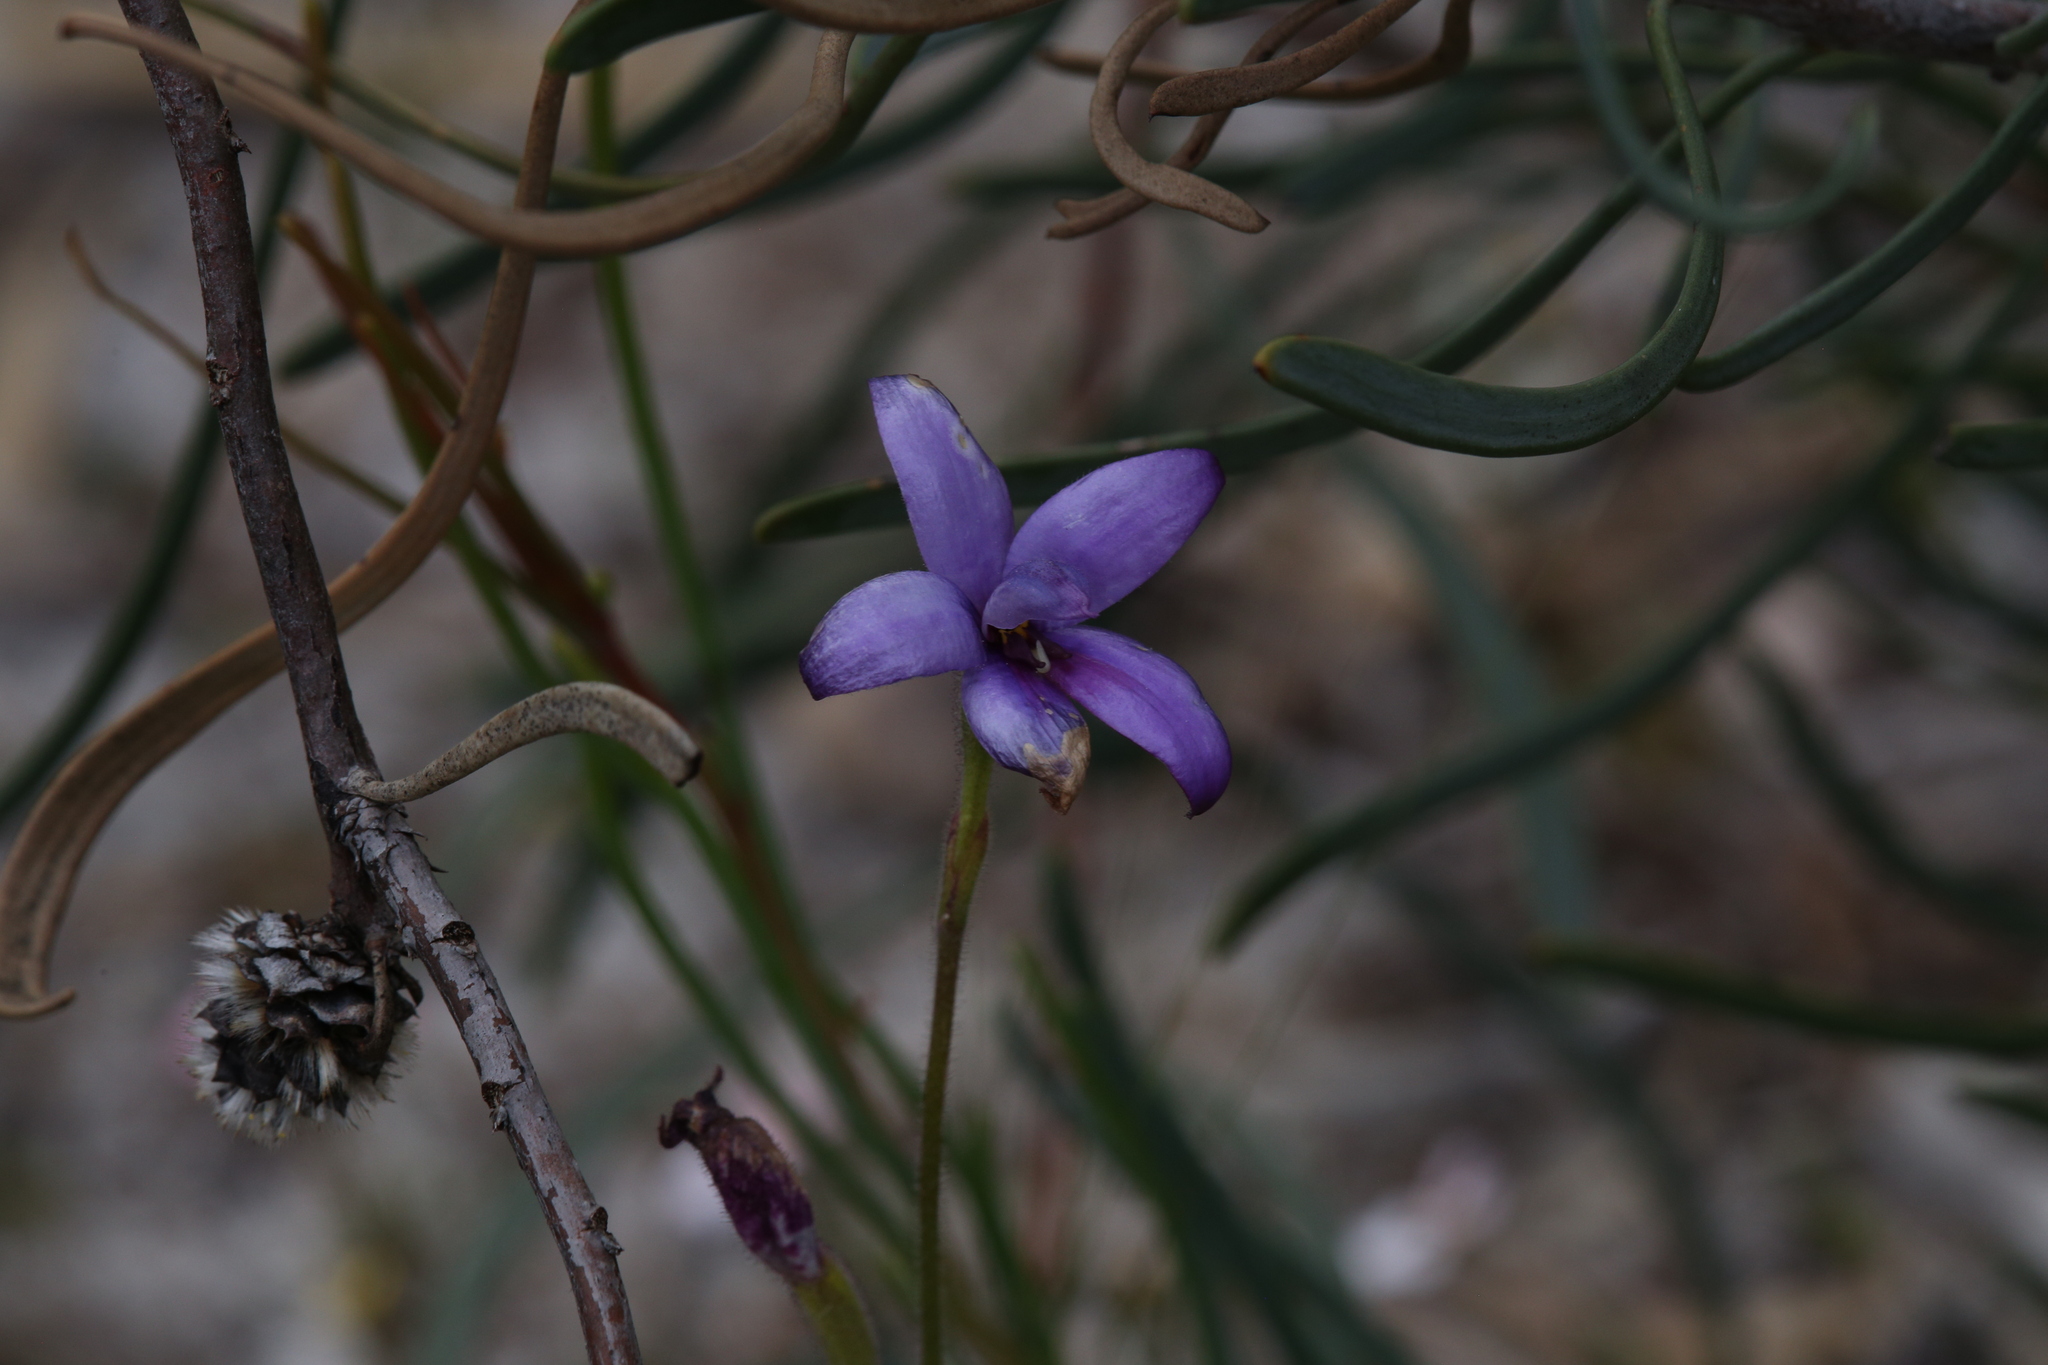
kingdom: Plantae
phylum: Tracheophyta
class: Liliopsida
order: Asparagales
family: Orchidaceae
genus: Caladenia
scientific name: Caladenia brunonis
